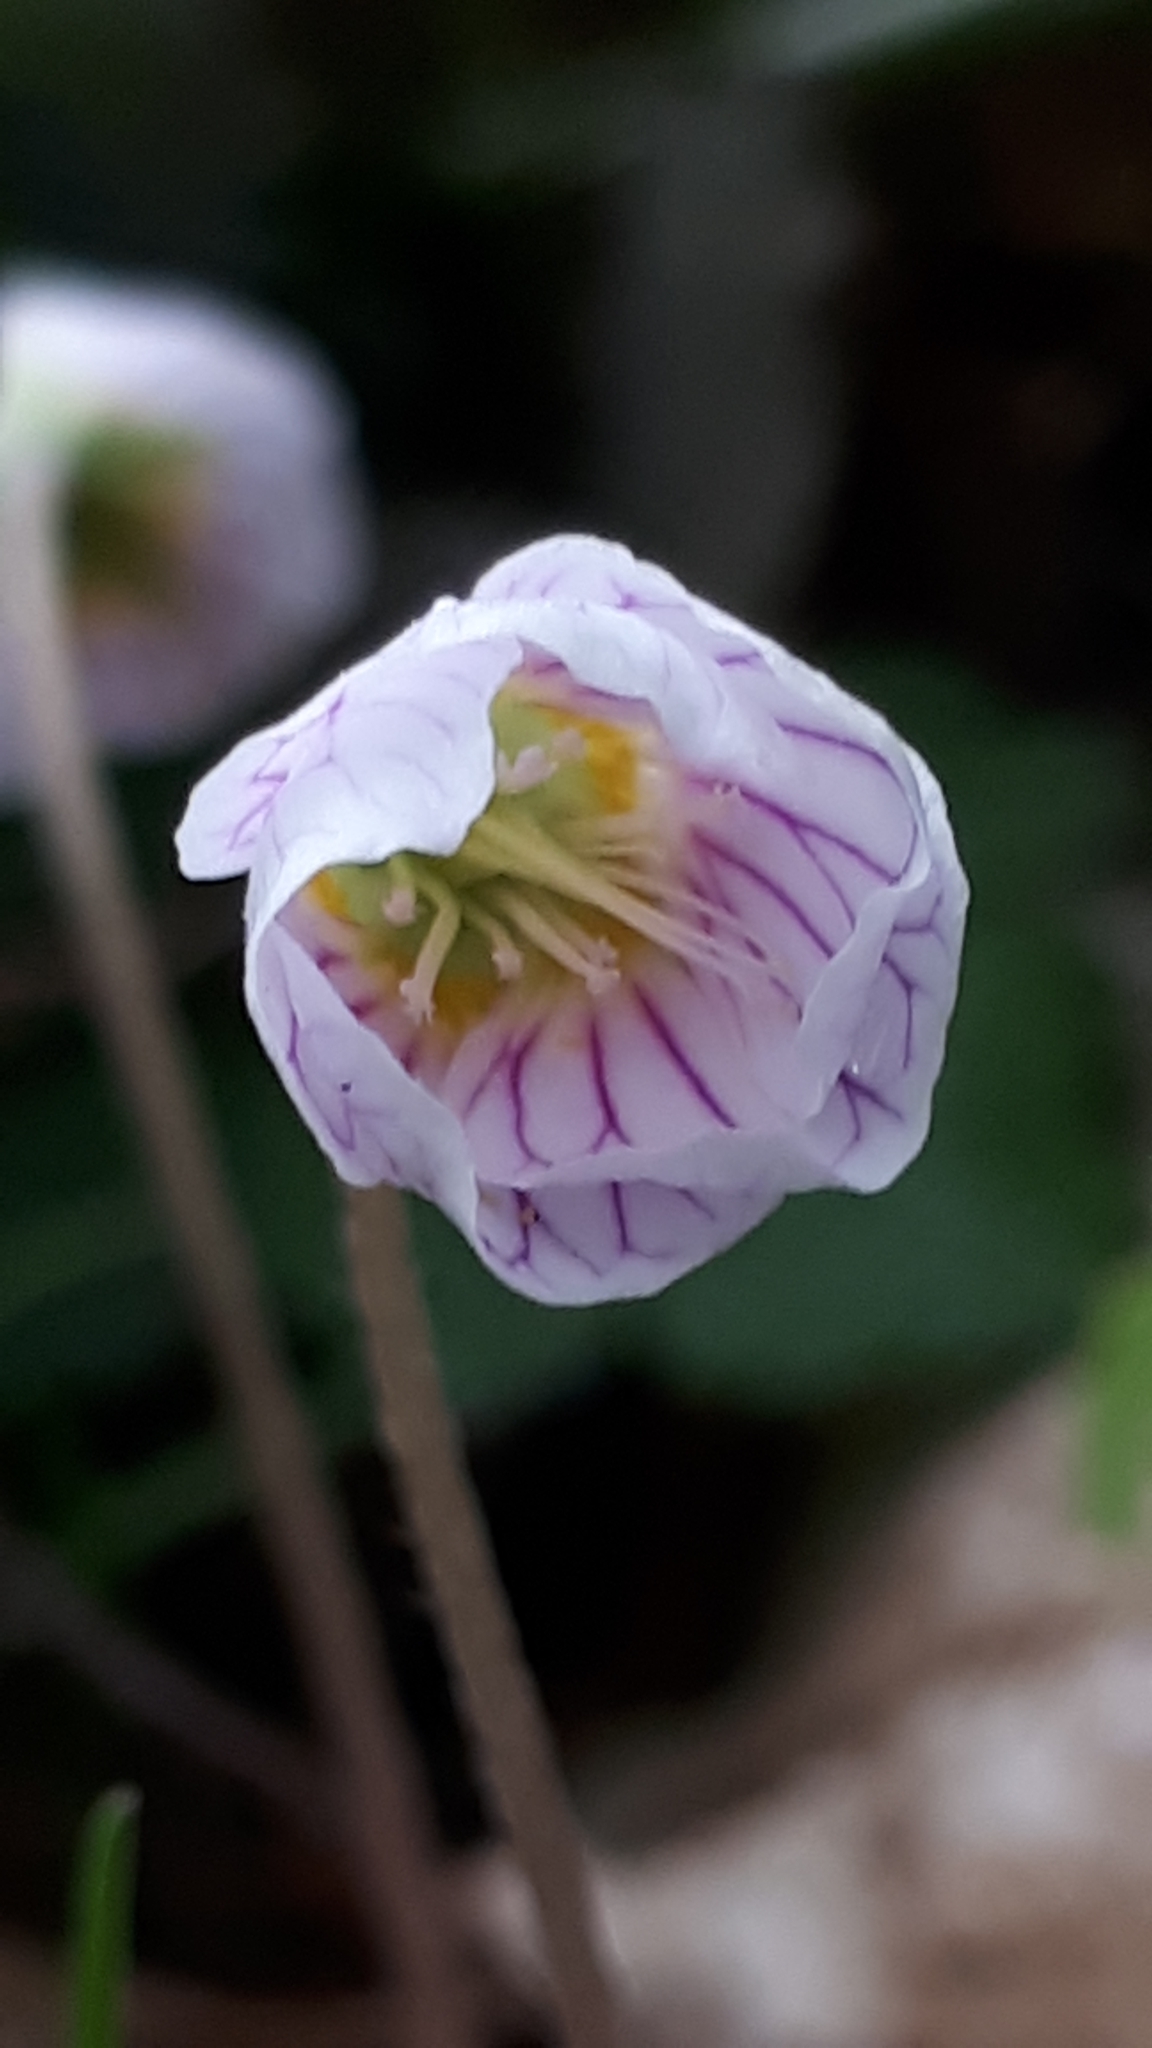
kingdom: Plantae
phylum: Tracheophyta
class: Magnoliopsida
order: Oxalidales
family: Oxalidaceae
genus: Oxalis
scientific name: Oxalis acetosella
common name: Wood-sorrel
